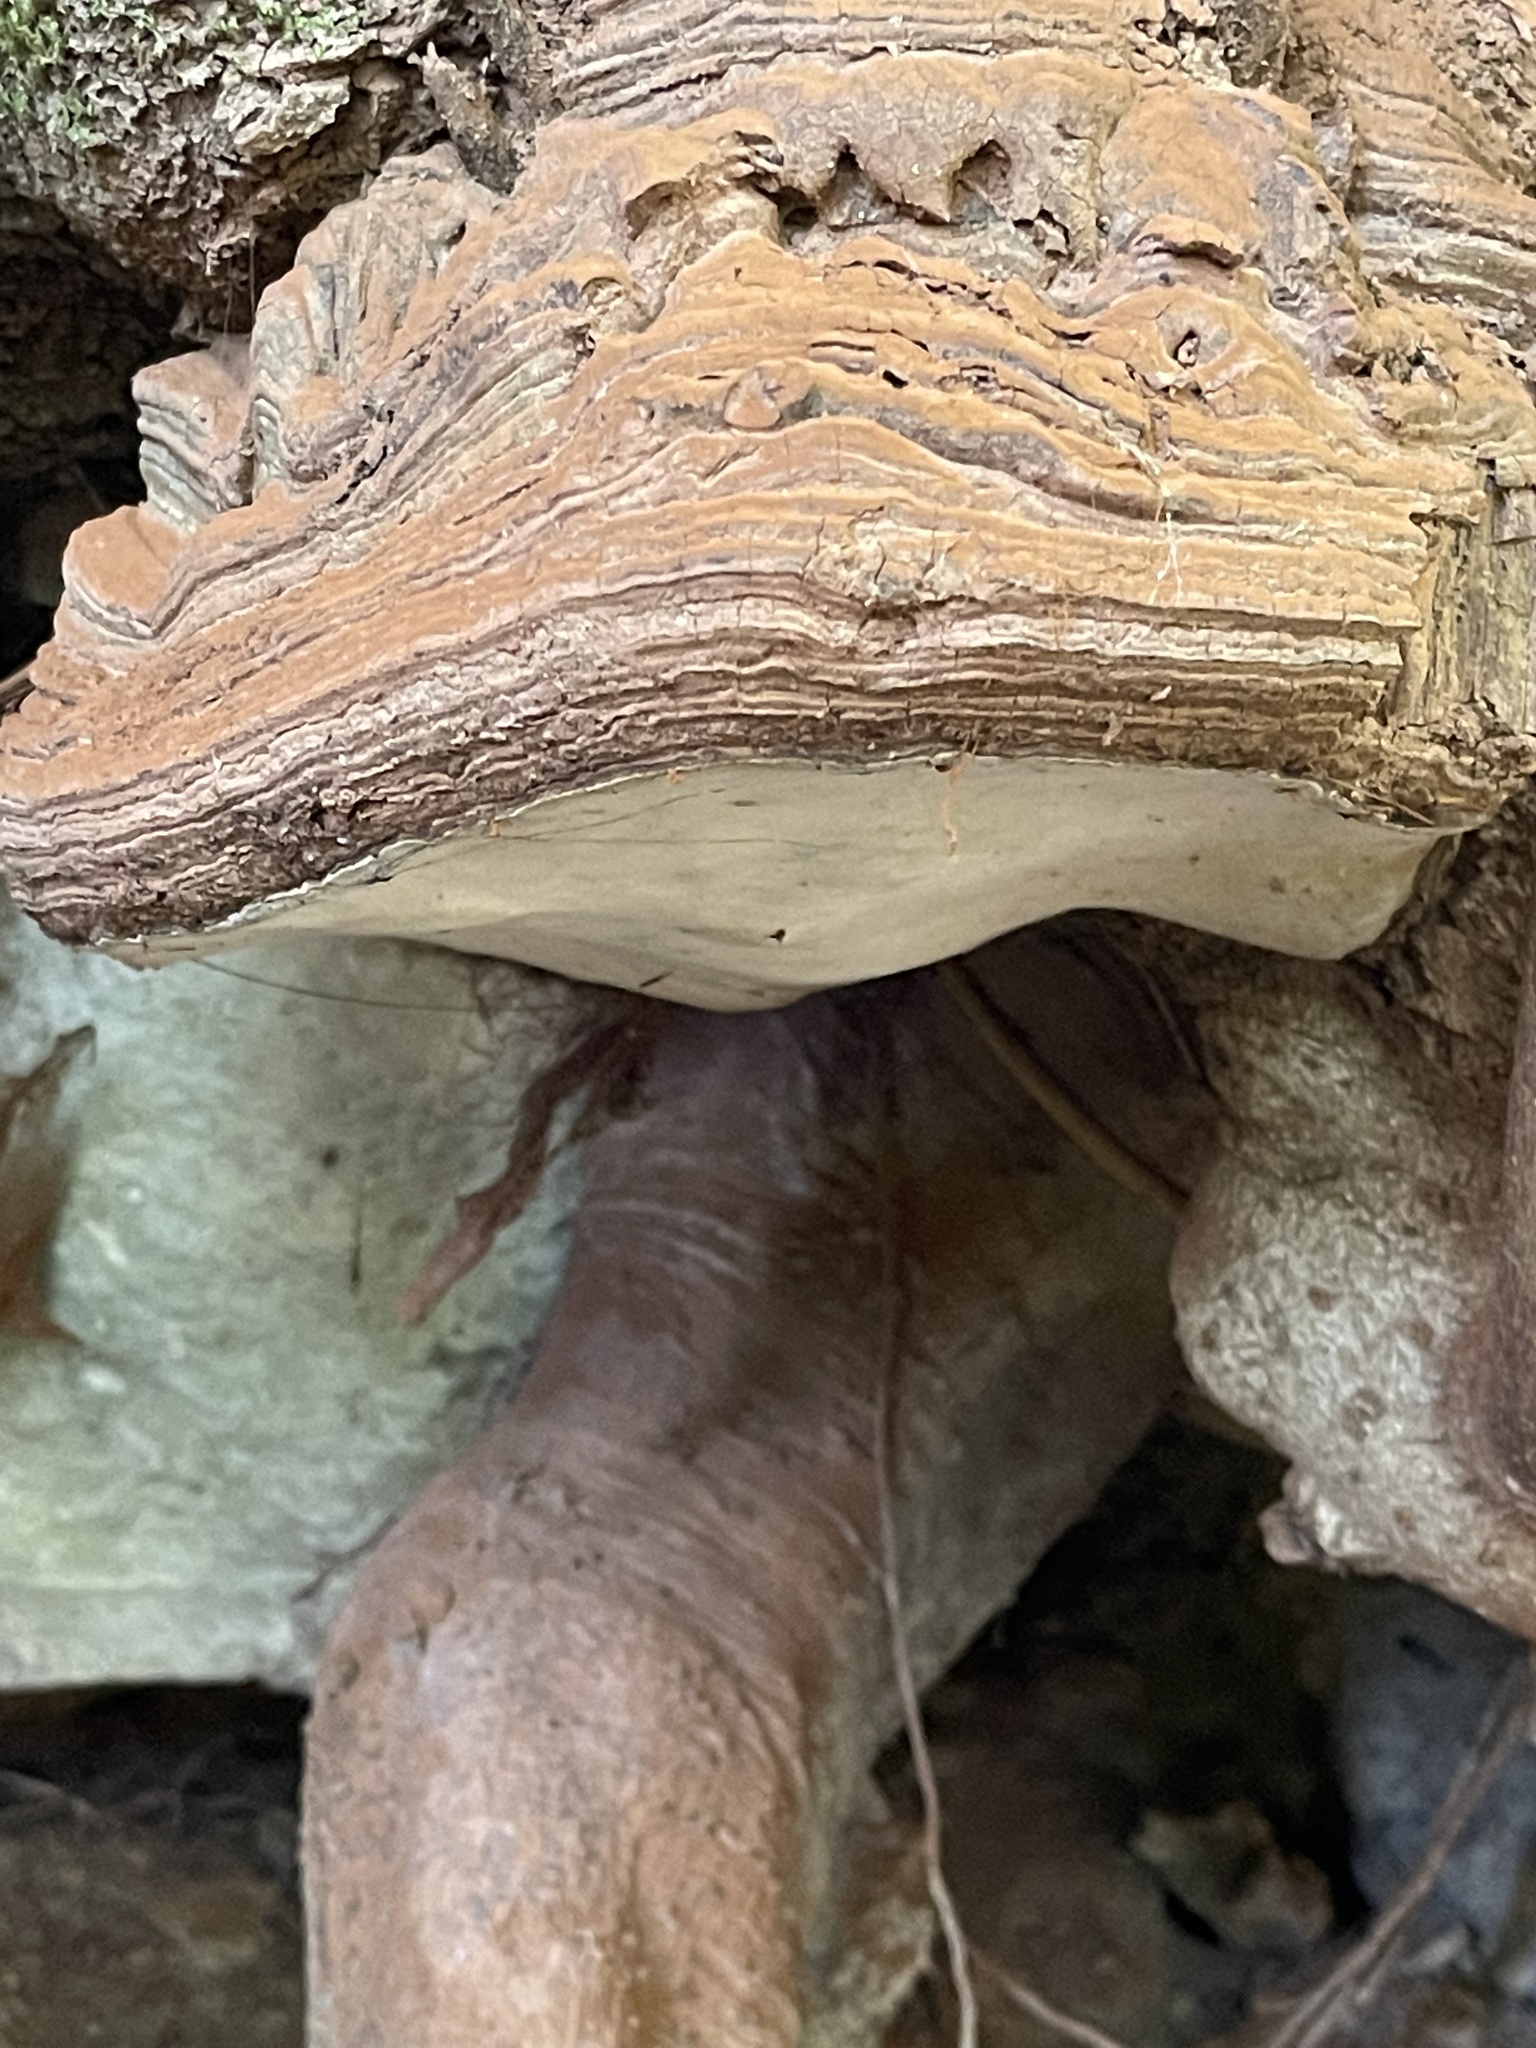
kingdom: Fungi
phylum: Basidiomycota
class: Agaricomycetes
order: Polyporales
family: Polyporaceae
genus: Ganoderma
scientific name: Ganoderma brownii
